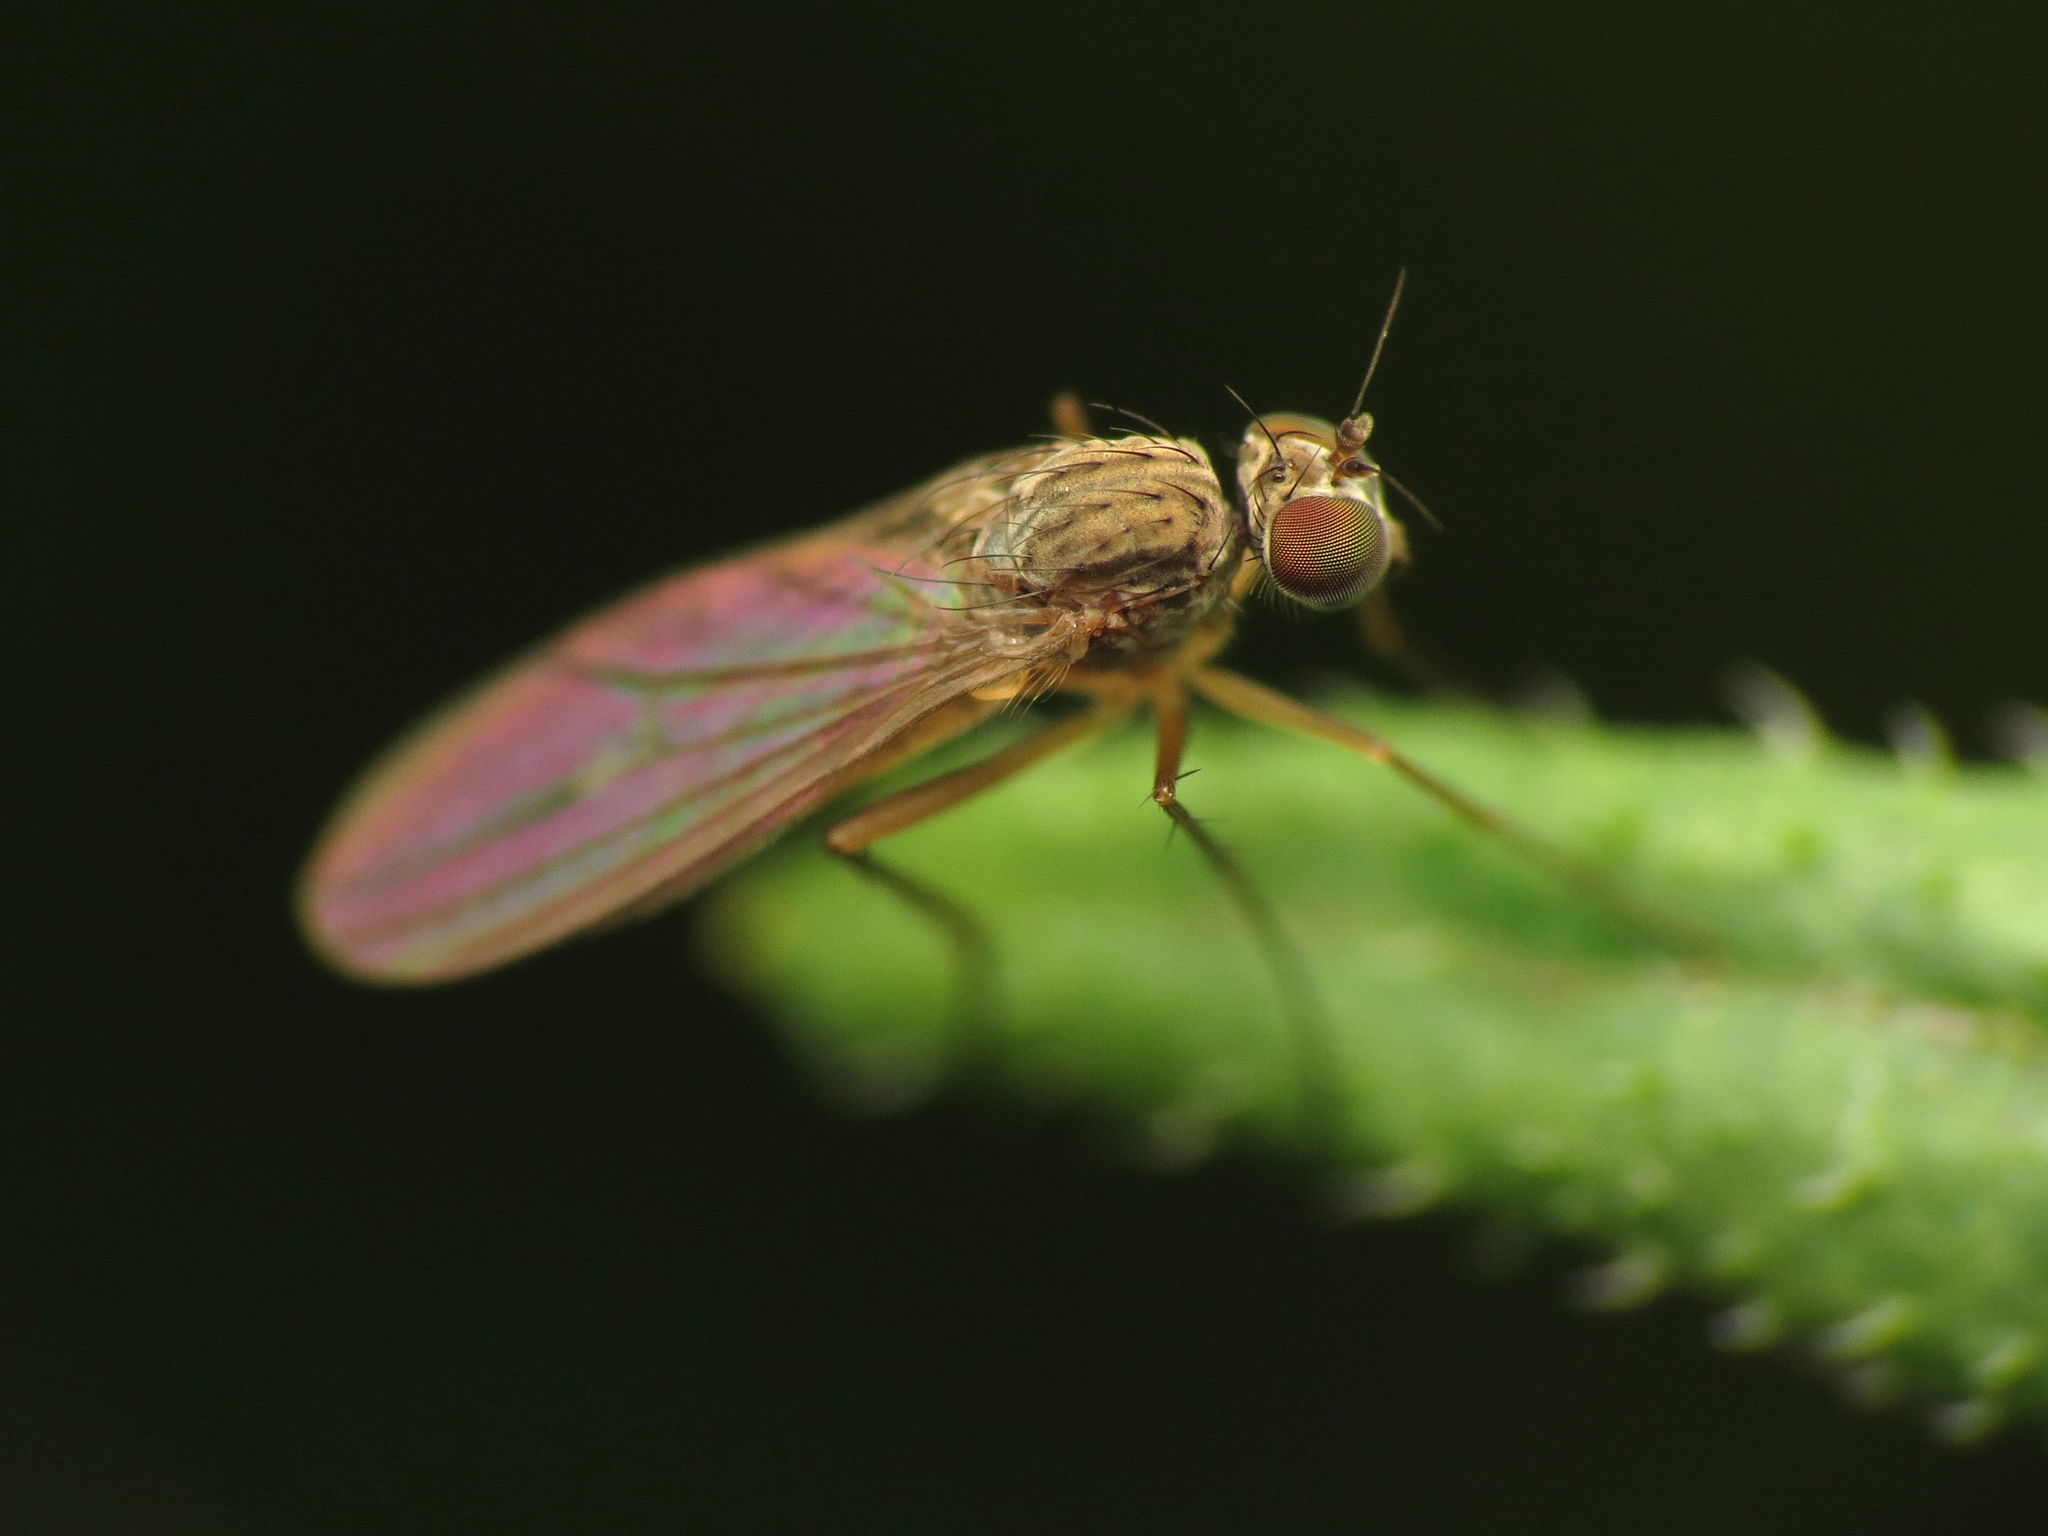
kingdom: Animalia
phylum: Arthropoda
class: Insecta
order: Diptera
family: Dolichopodidae
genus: Sympycnus
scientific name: Sympycnus lineatus
